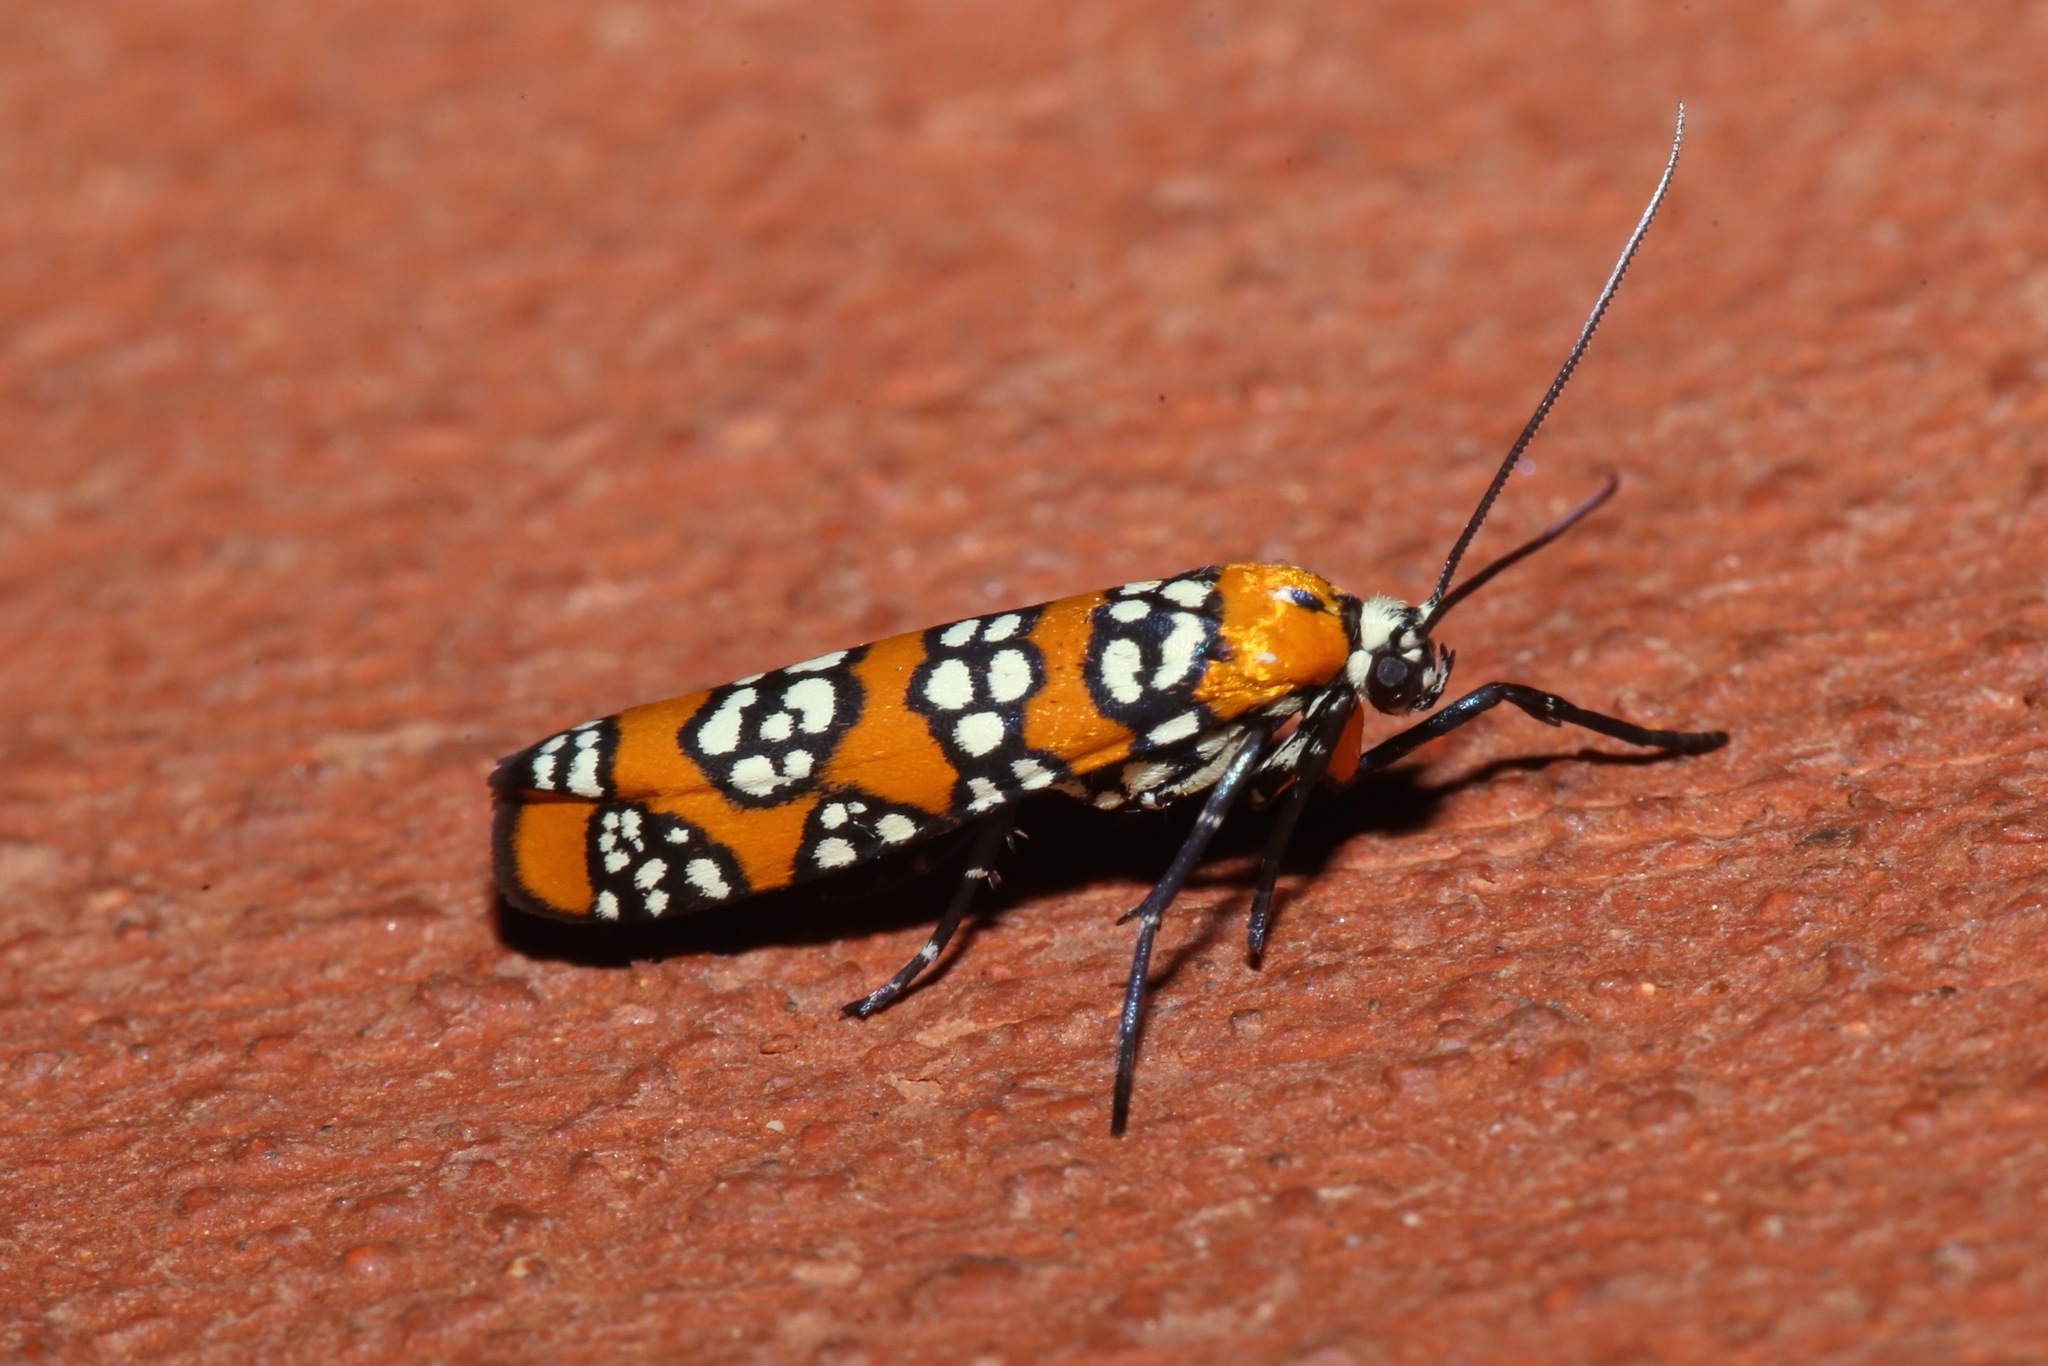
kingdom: Animalia
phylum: Arthropoda
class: Insecta
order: Lepidoptera
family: Attevidae
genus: Atteva
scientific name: Atteva punctella
